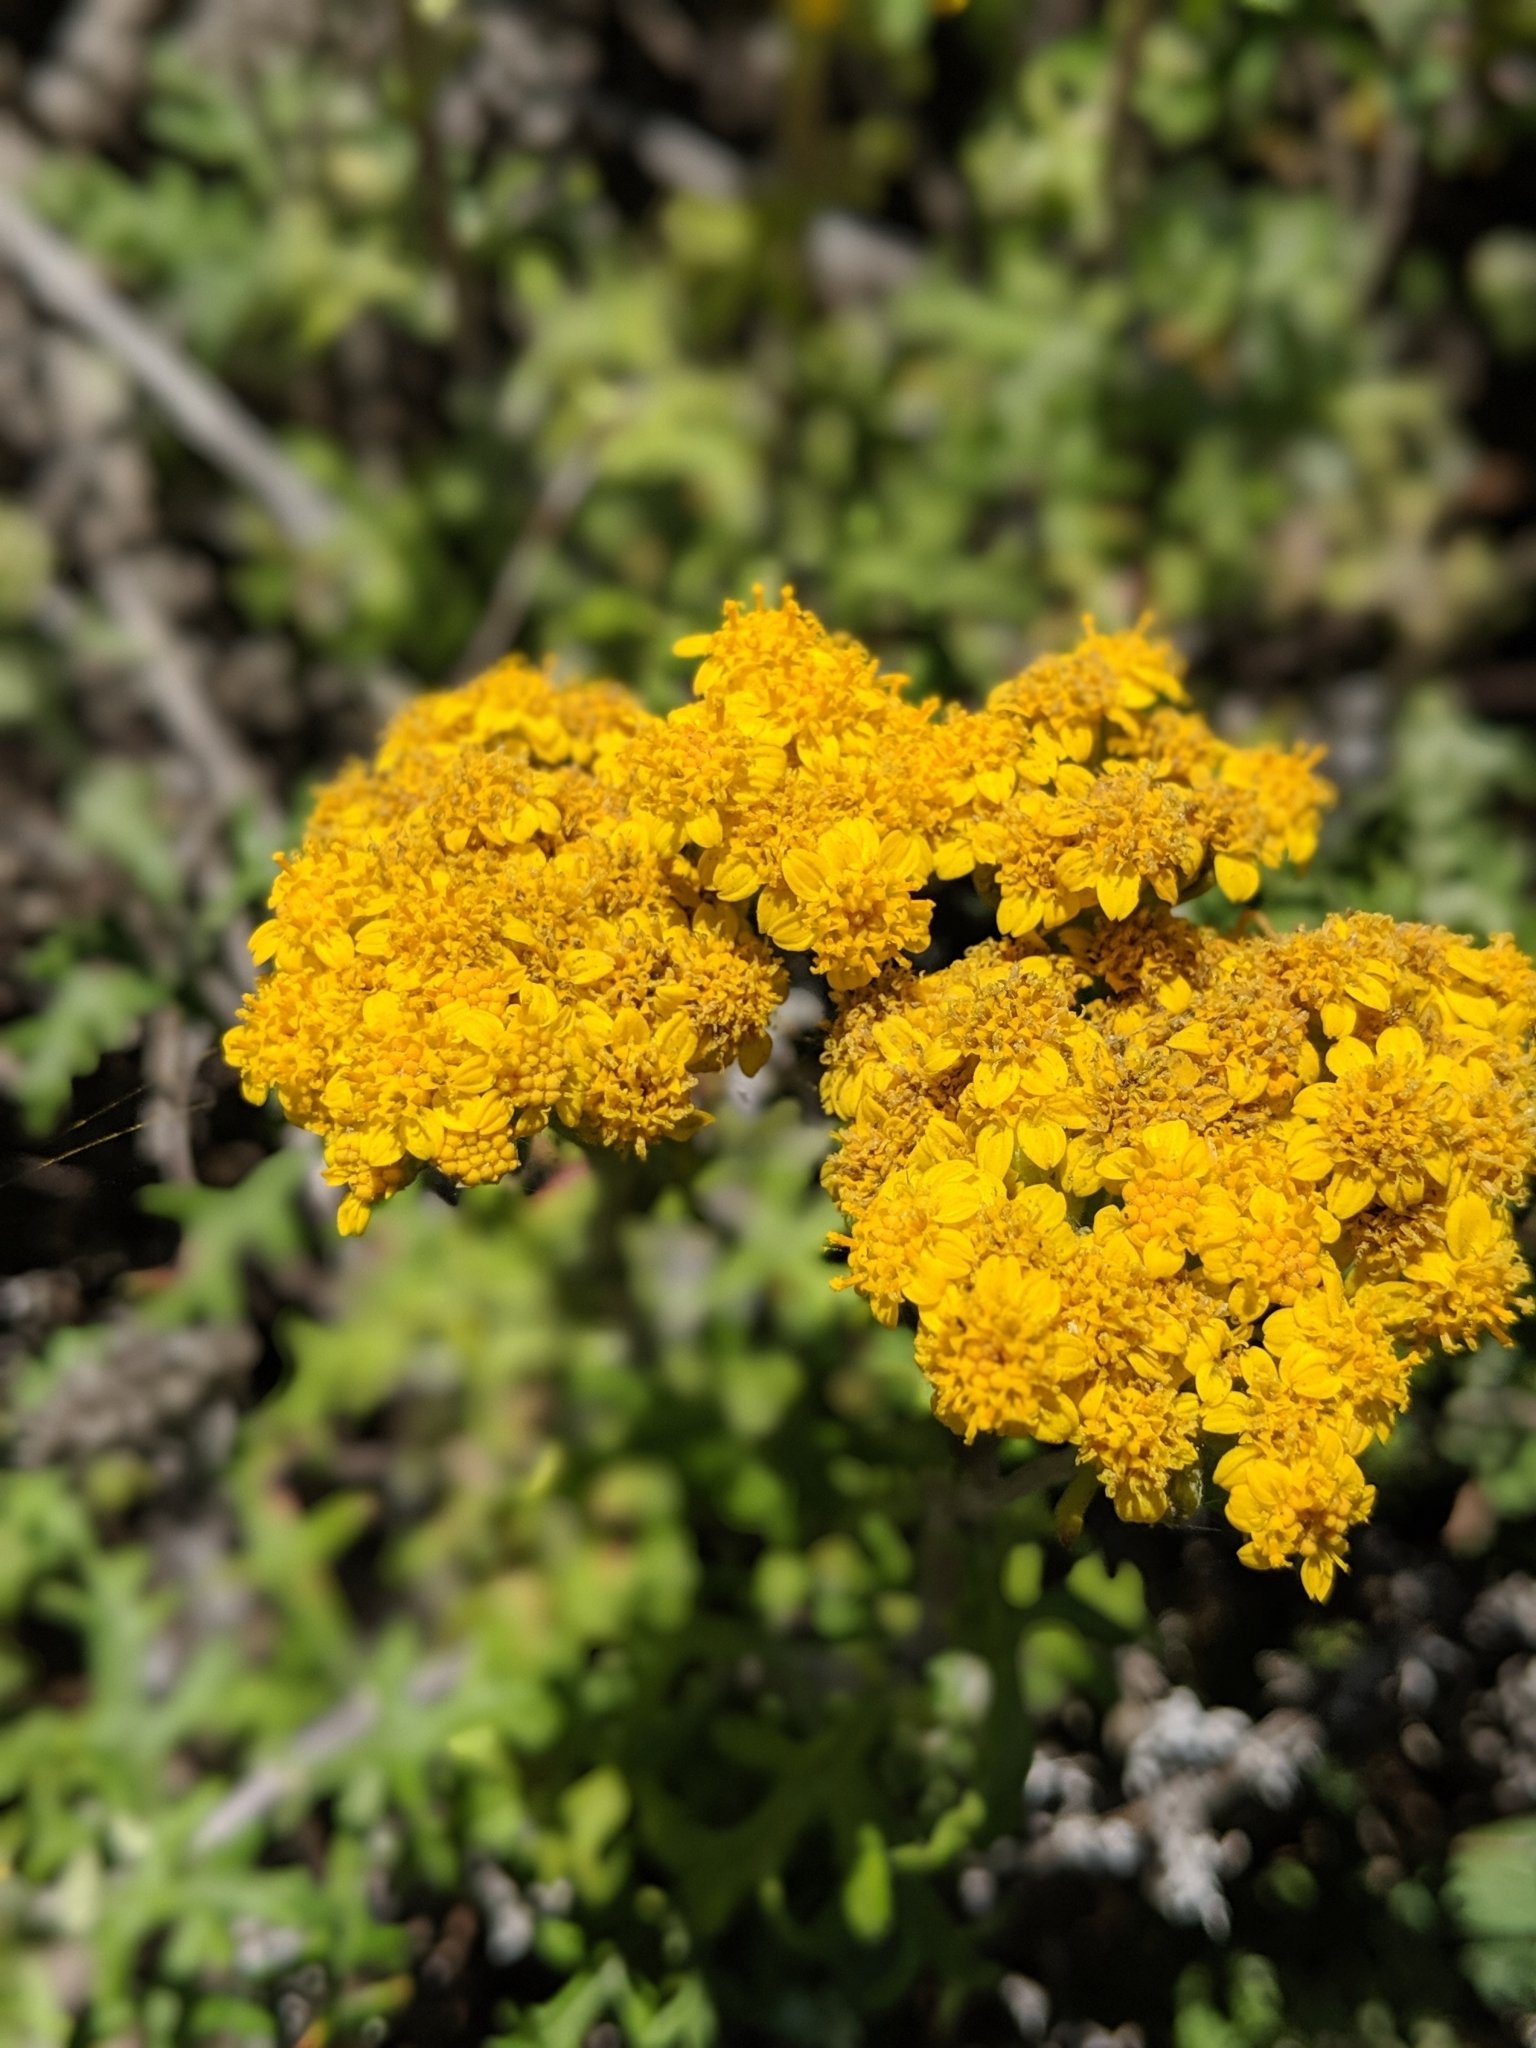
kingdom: Plantae
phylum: Tracheophyta
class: Magnoliopsida
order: Asterales
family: Asteraceae
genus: Eriophyllum
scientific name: Eriophyllum staechadifolium
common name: Lizardtail
